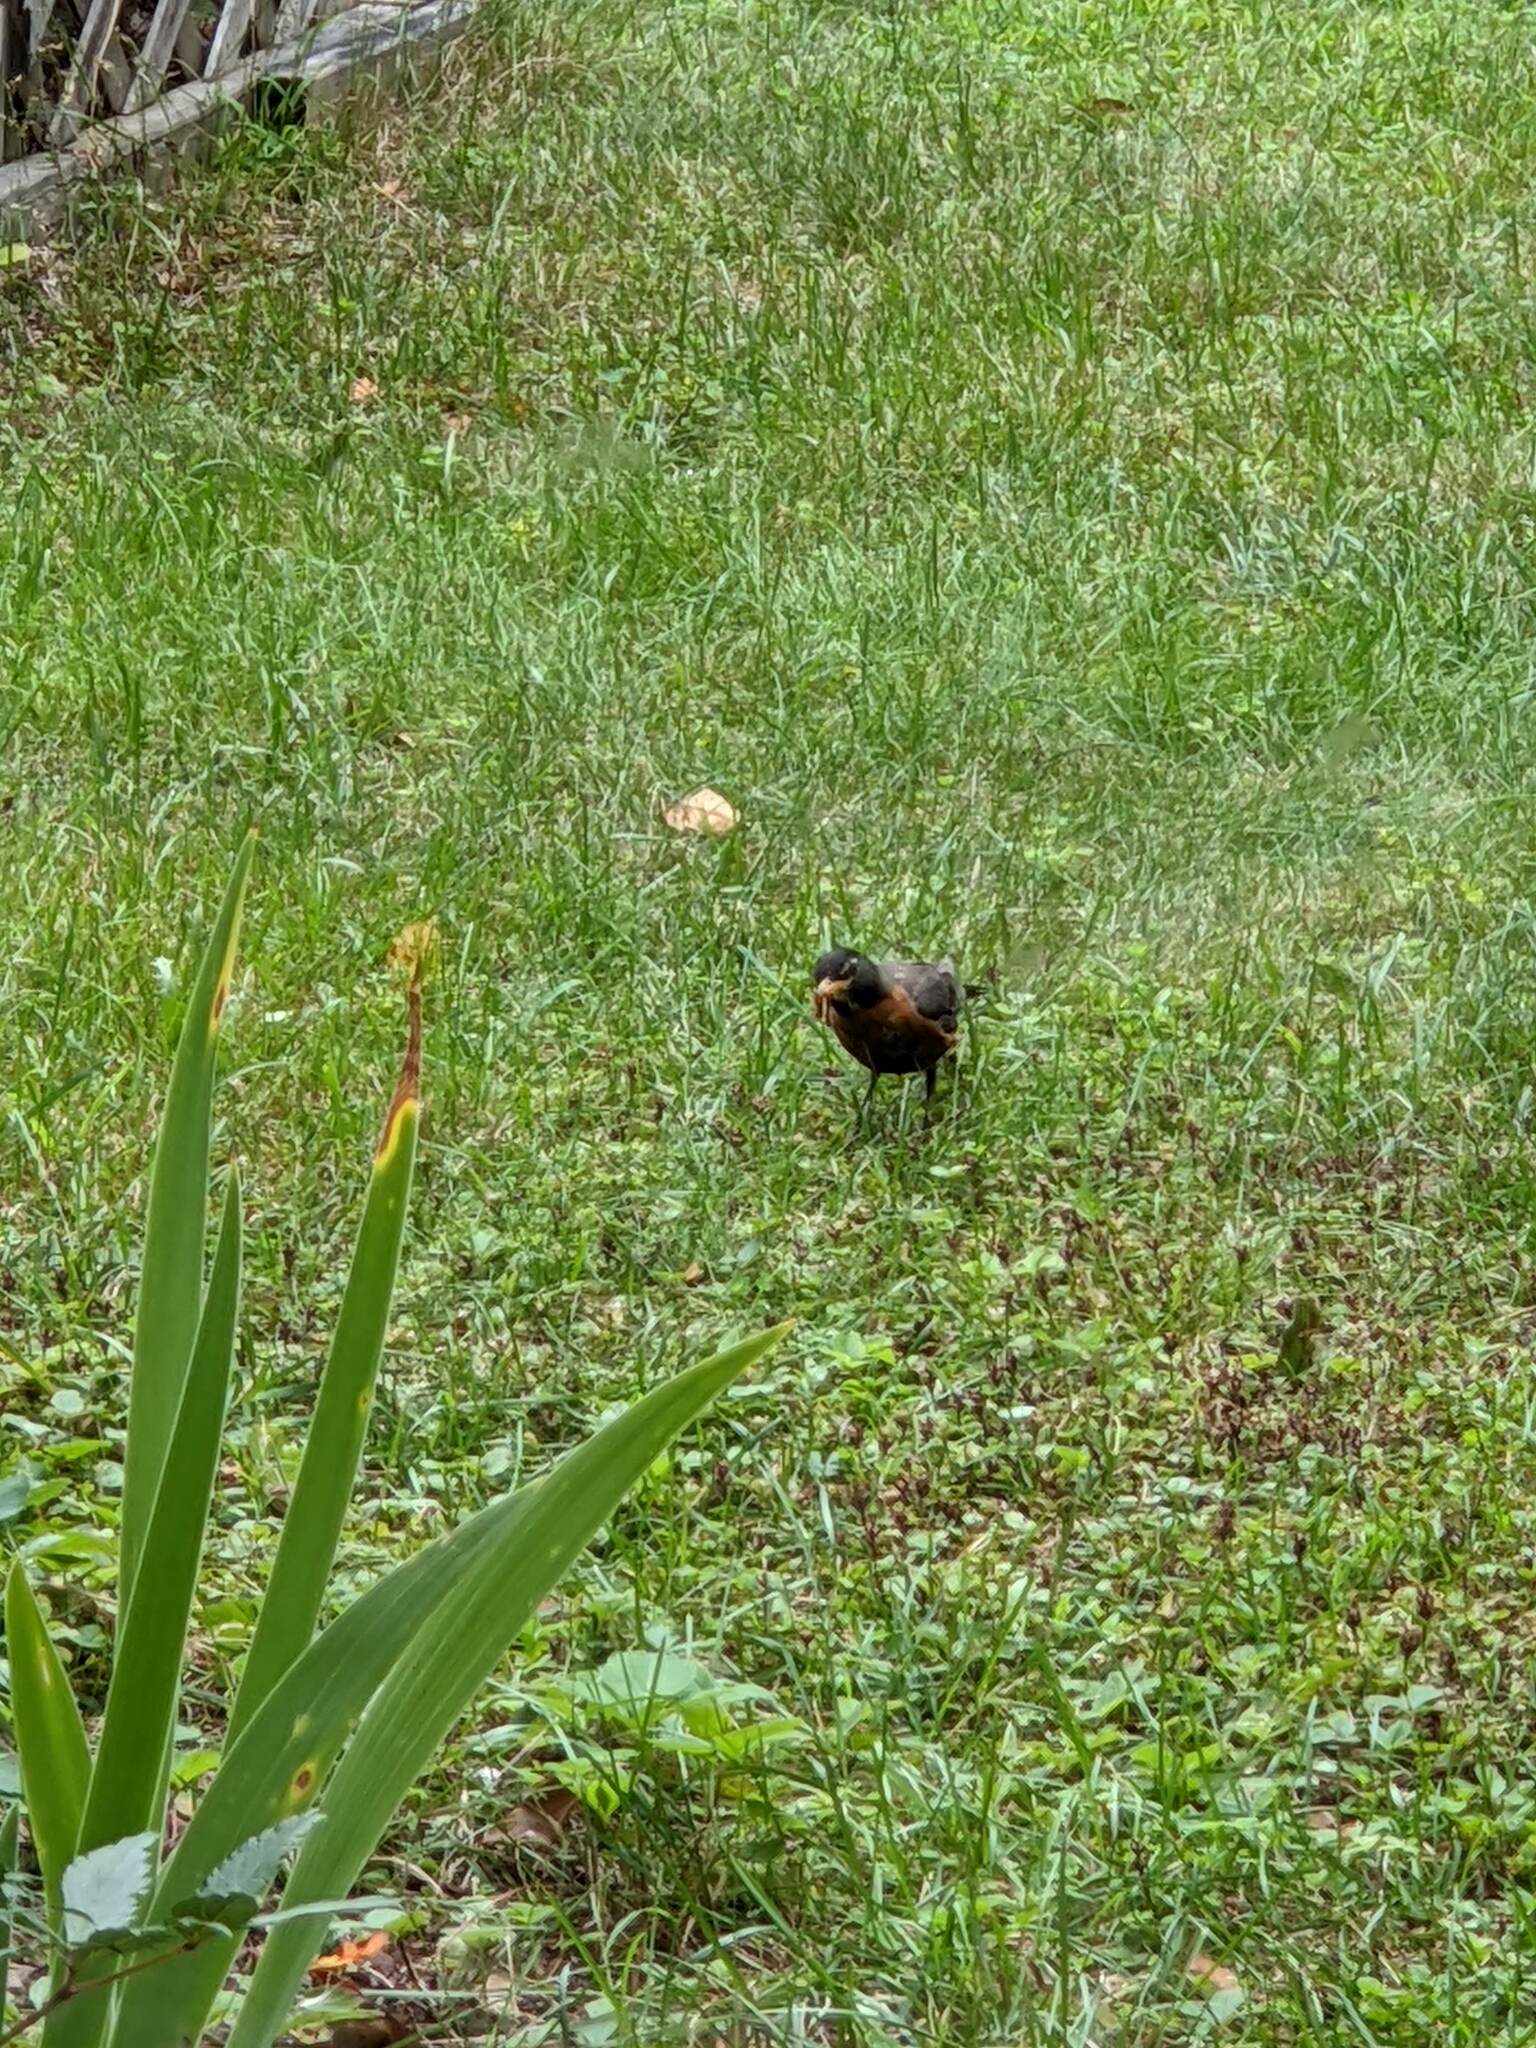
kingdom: Animalia
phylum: Chordata
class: Aves
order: Passeriformes
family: Turdidae
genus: Turdus
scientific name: Turdus migratorius
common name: American robin
